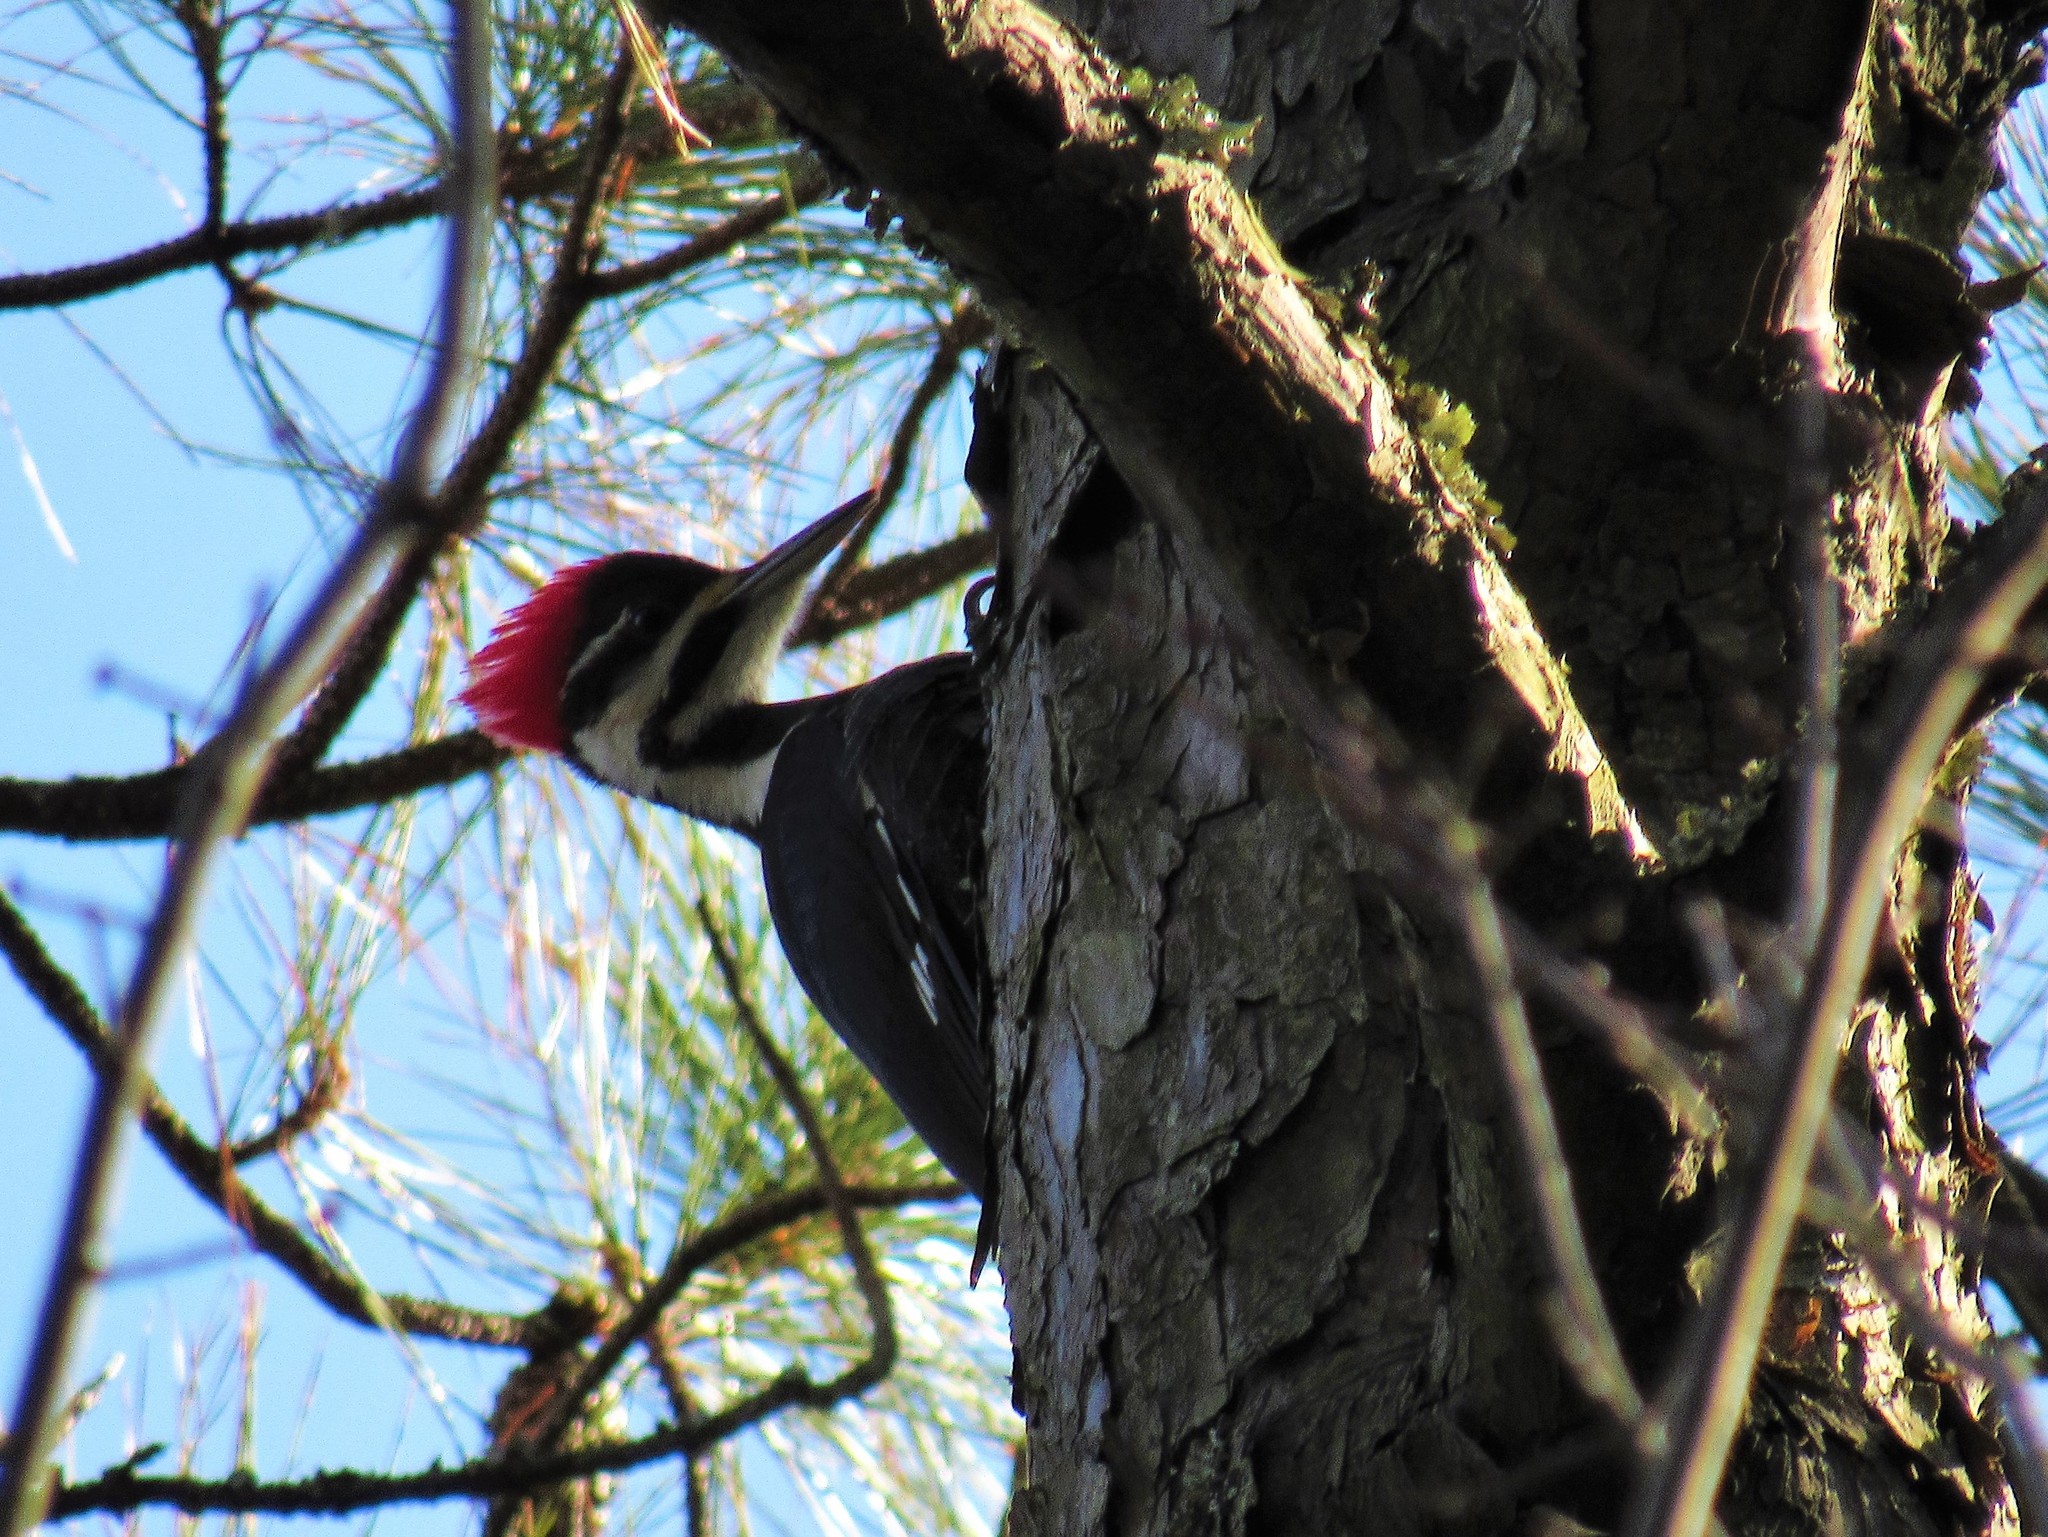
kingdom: Animalia
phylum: Chordata
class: Aves
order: Piciformes
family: Picidae
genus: Dryocopus
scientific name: Dryocopus pileatus
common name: Pileated woodpecker
